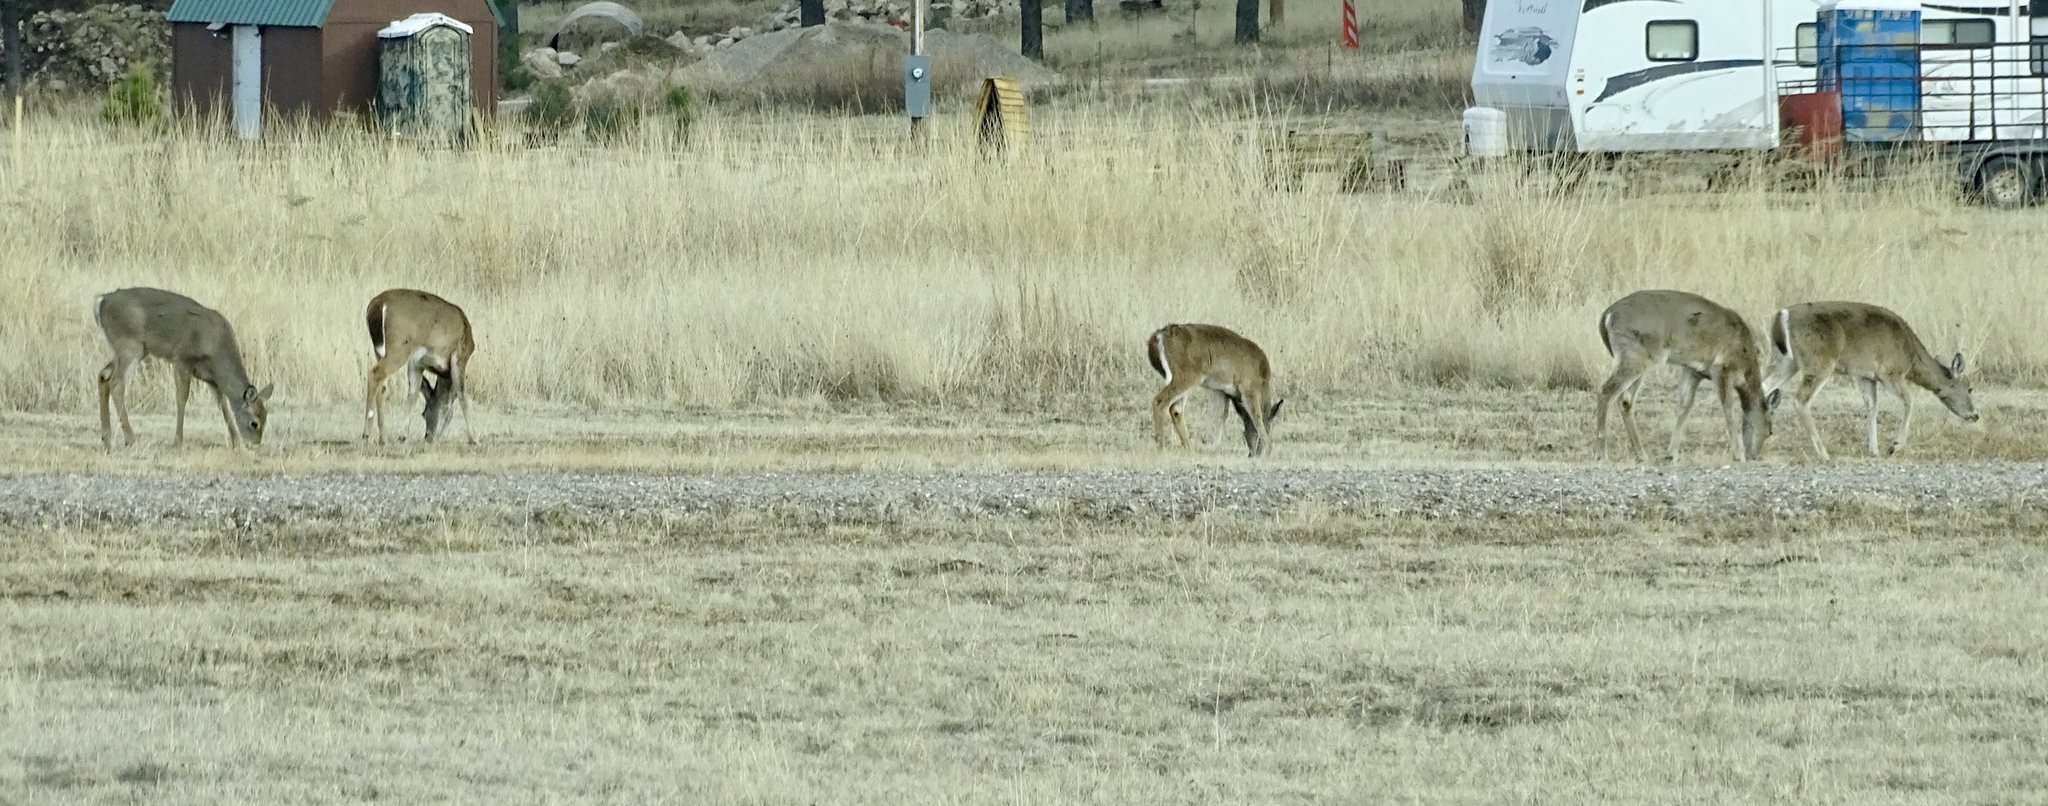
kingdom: Animalia
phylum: Chordata
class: Mammalia
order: Artiodactyla
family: Cervidae
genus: Odocoileus
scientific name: Odocoileus virginianus
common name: White-tailed deer
